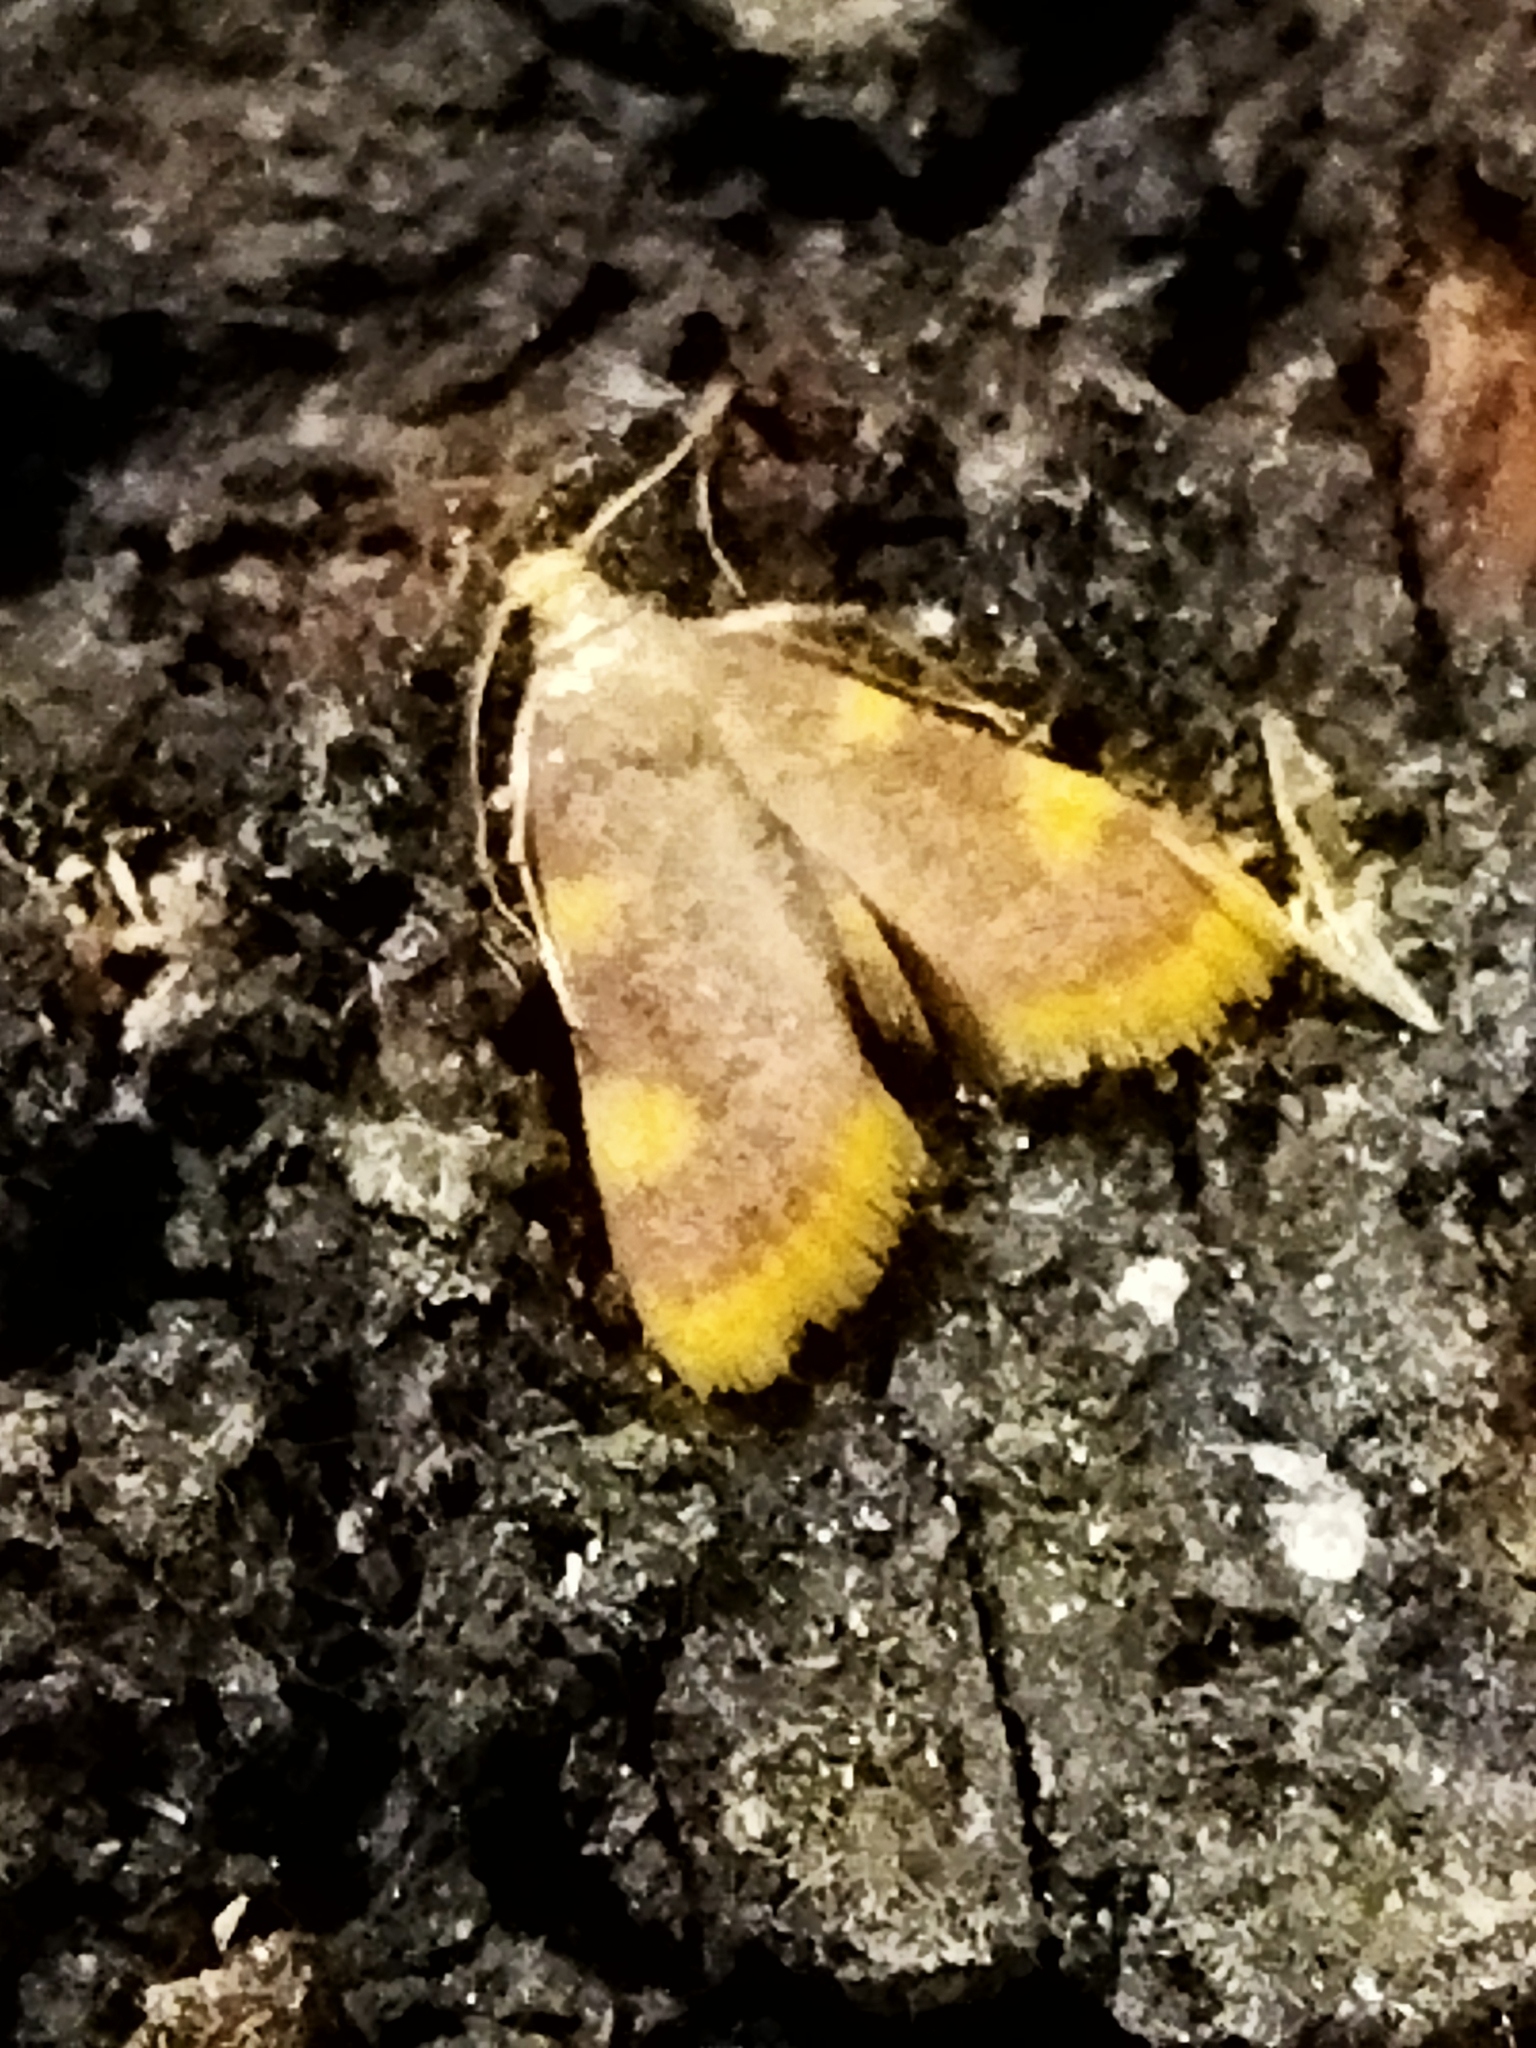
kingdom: Animalia
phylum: Arthropoda
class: Insecta
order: Lepidoptera
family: Pyralidae
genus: Hypsopygia
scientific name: Hypsopygia costalis
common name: Gold triangle
